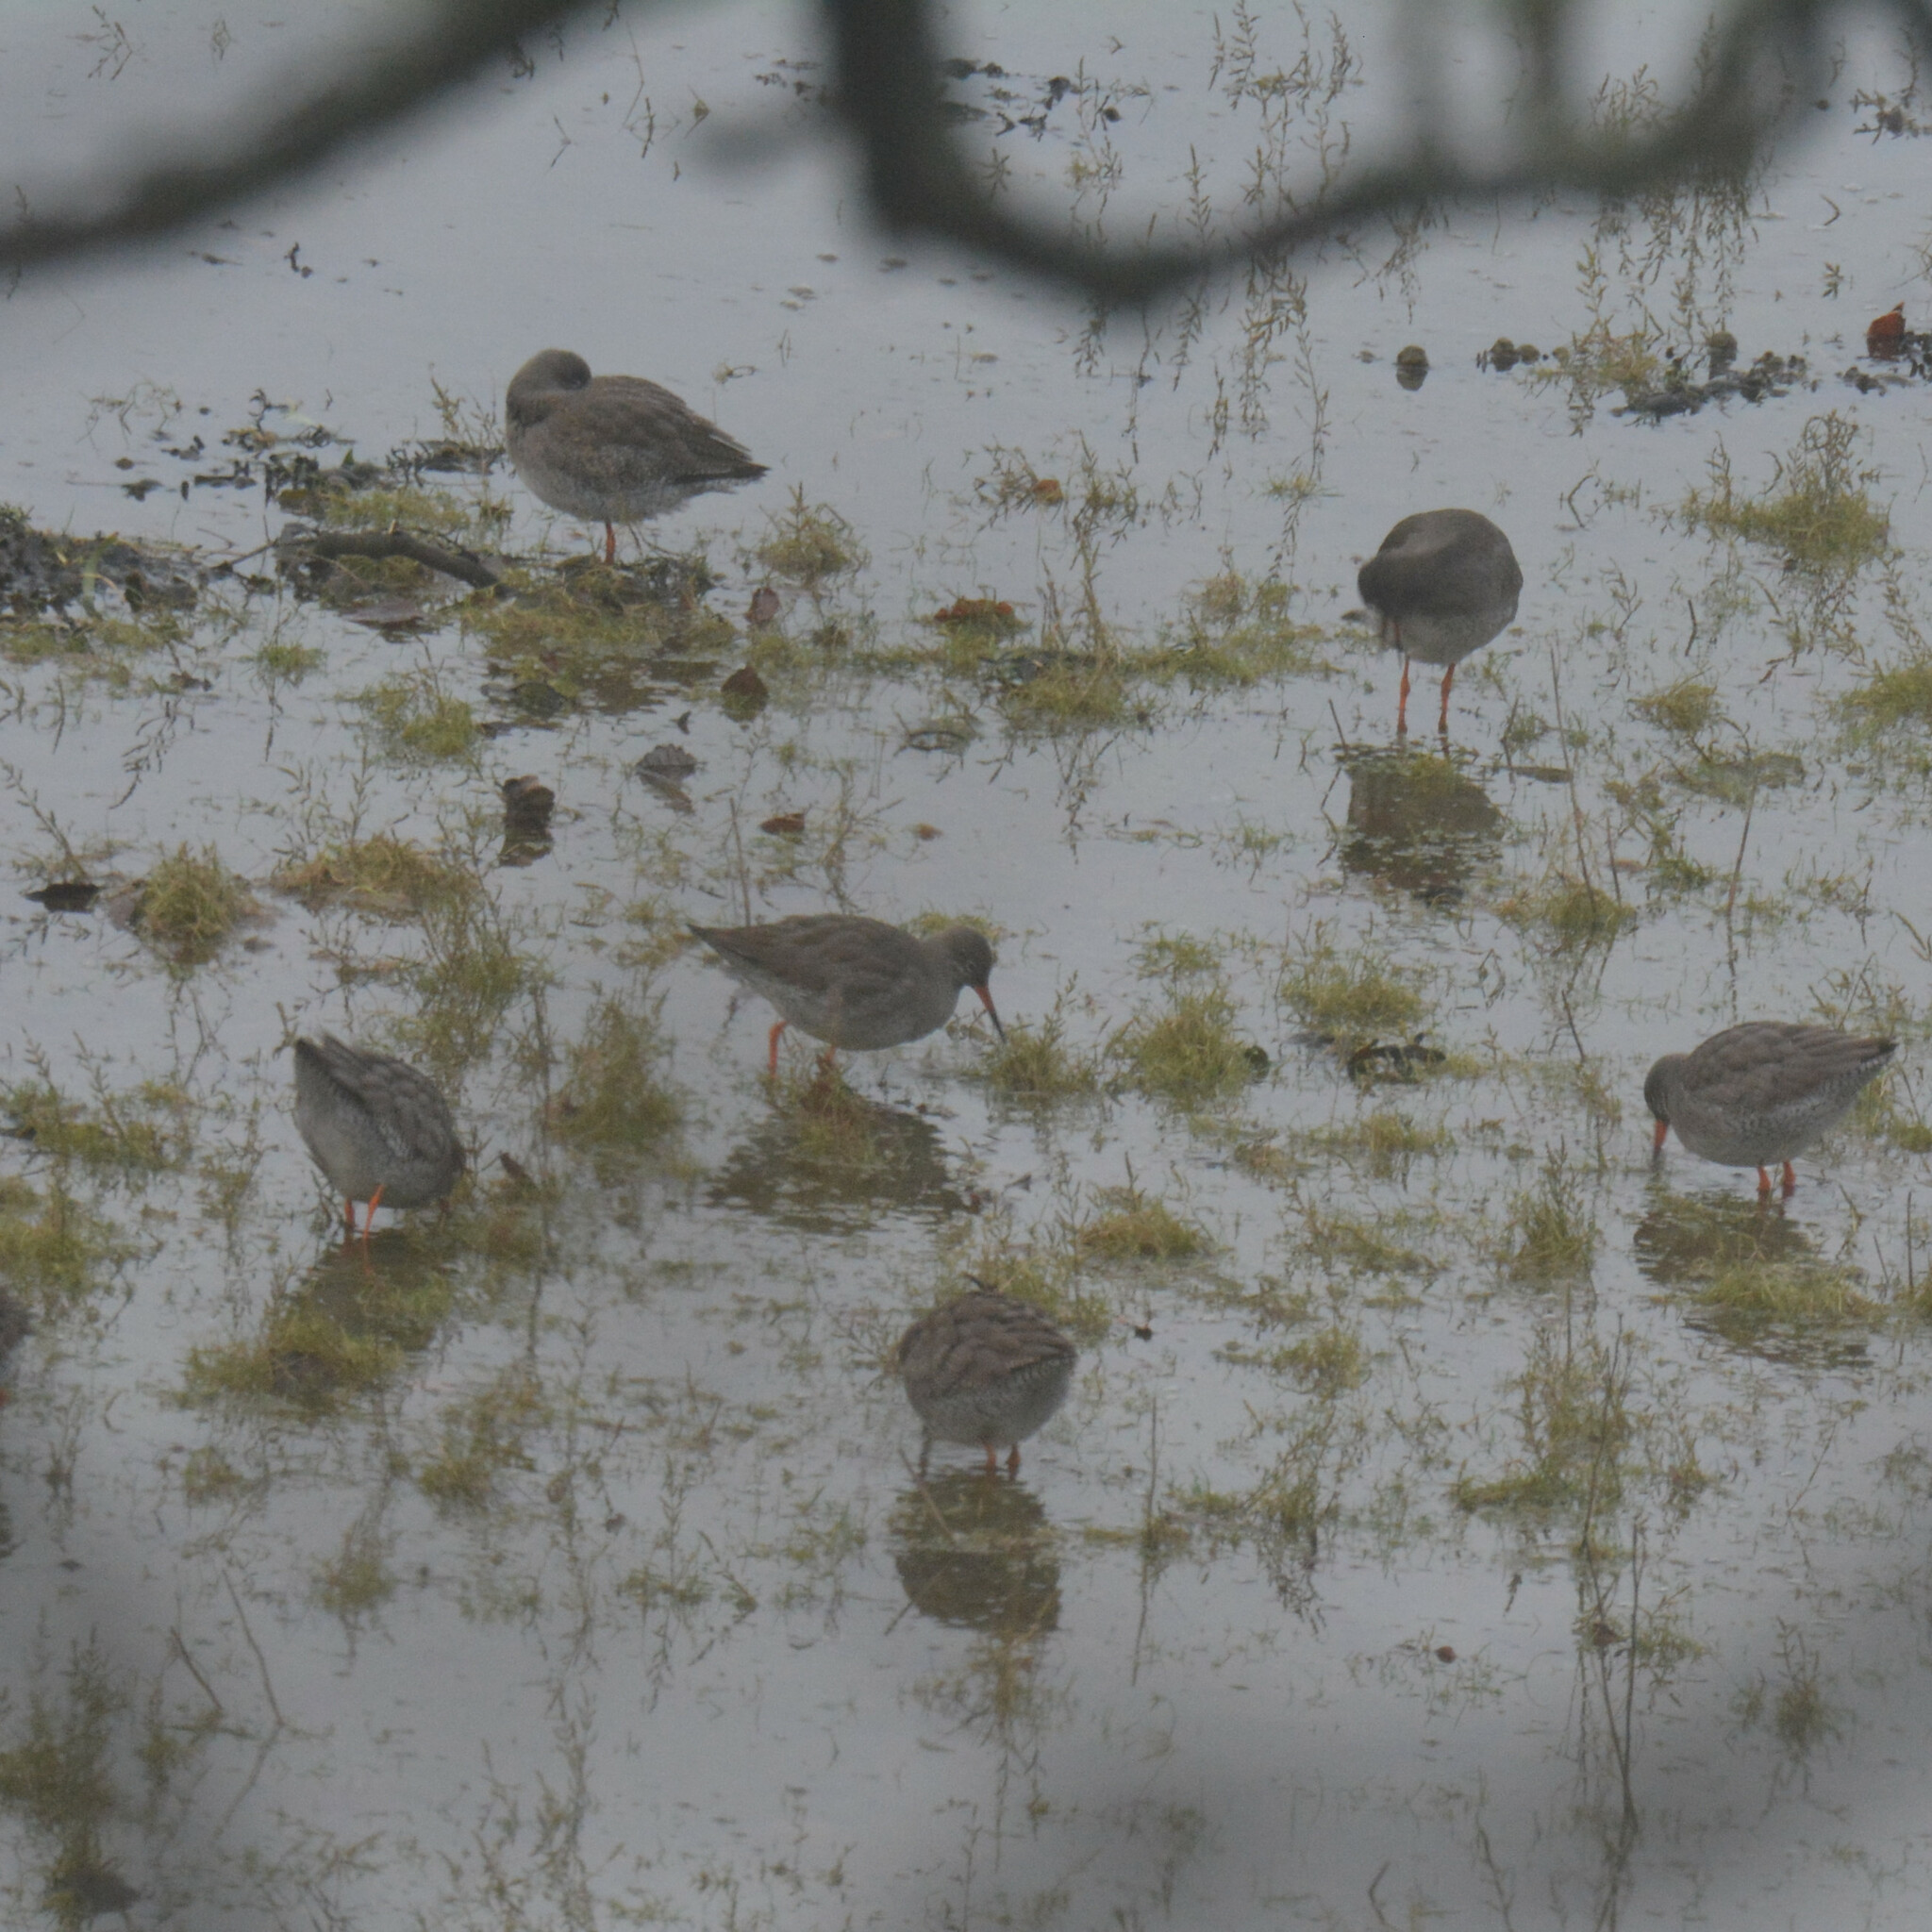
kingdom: Animalia
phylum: Chordata
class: Aves
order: Charadriiformes
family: Scolopacidae
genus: Tringa
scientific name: Tringa totanus
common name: Common redshank
